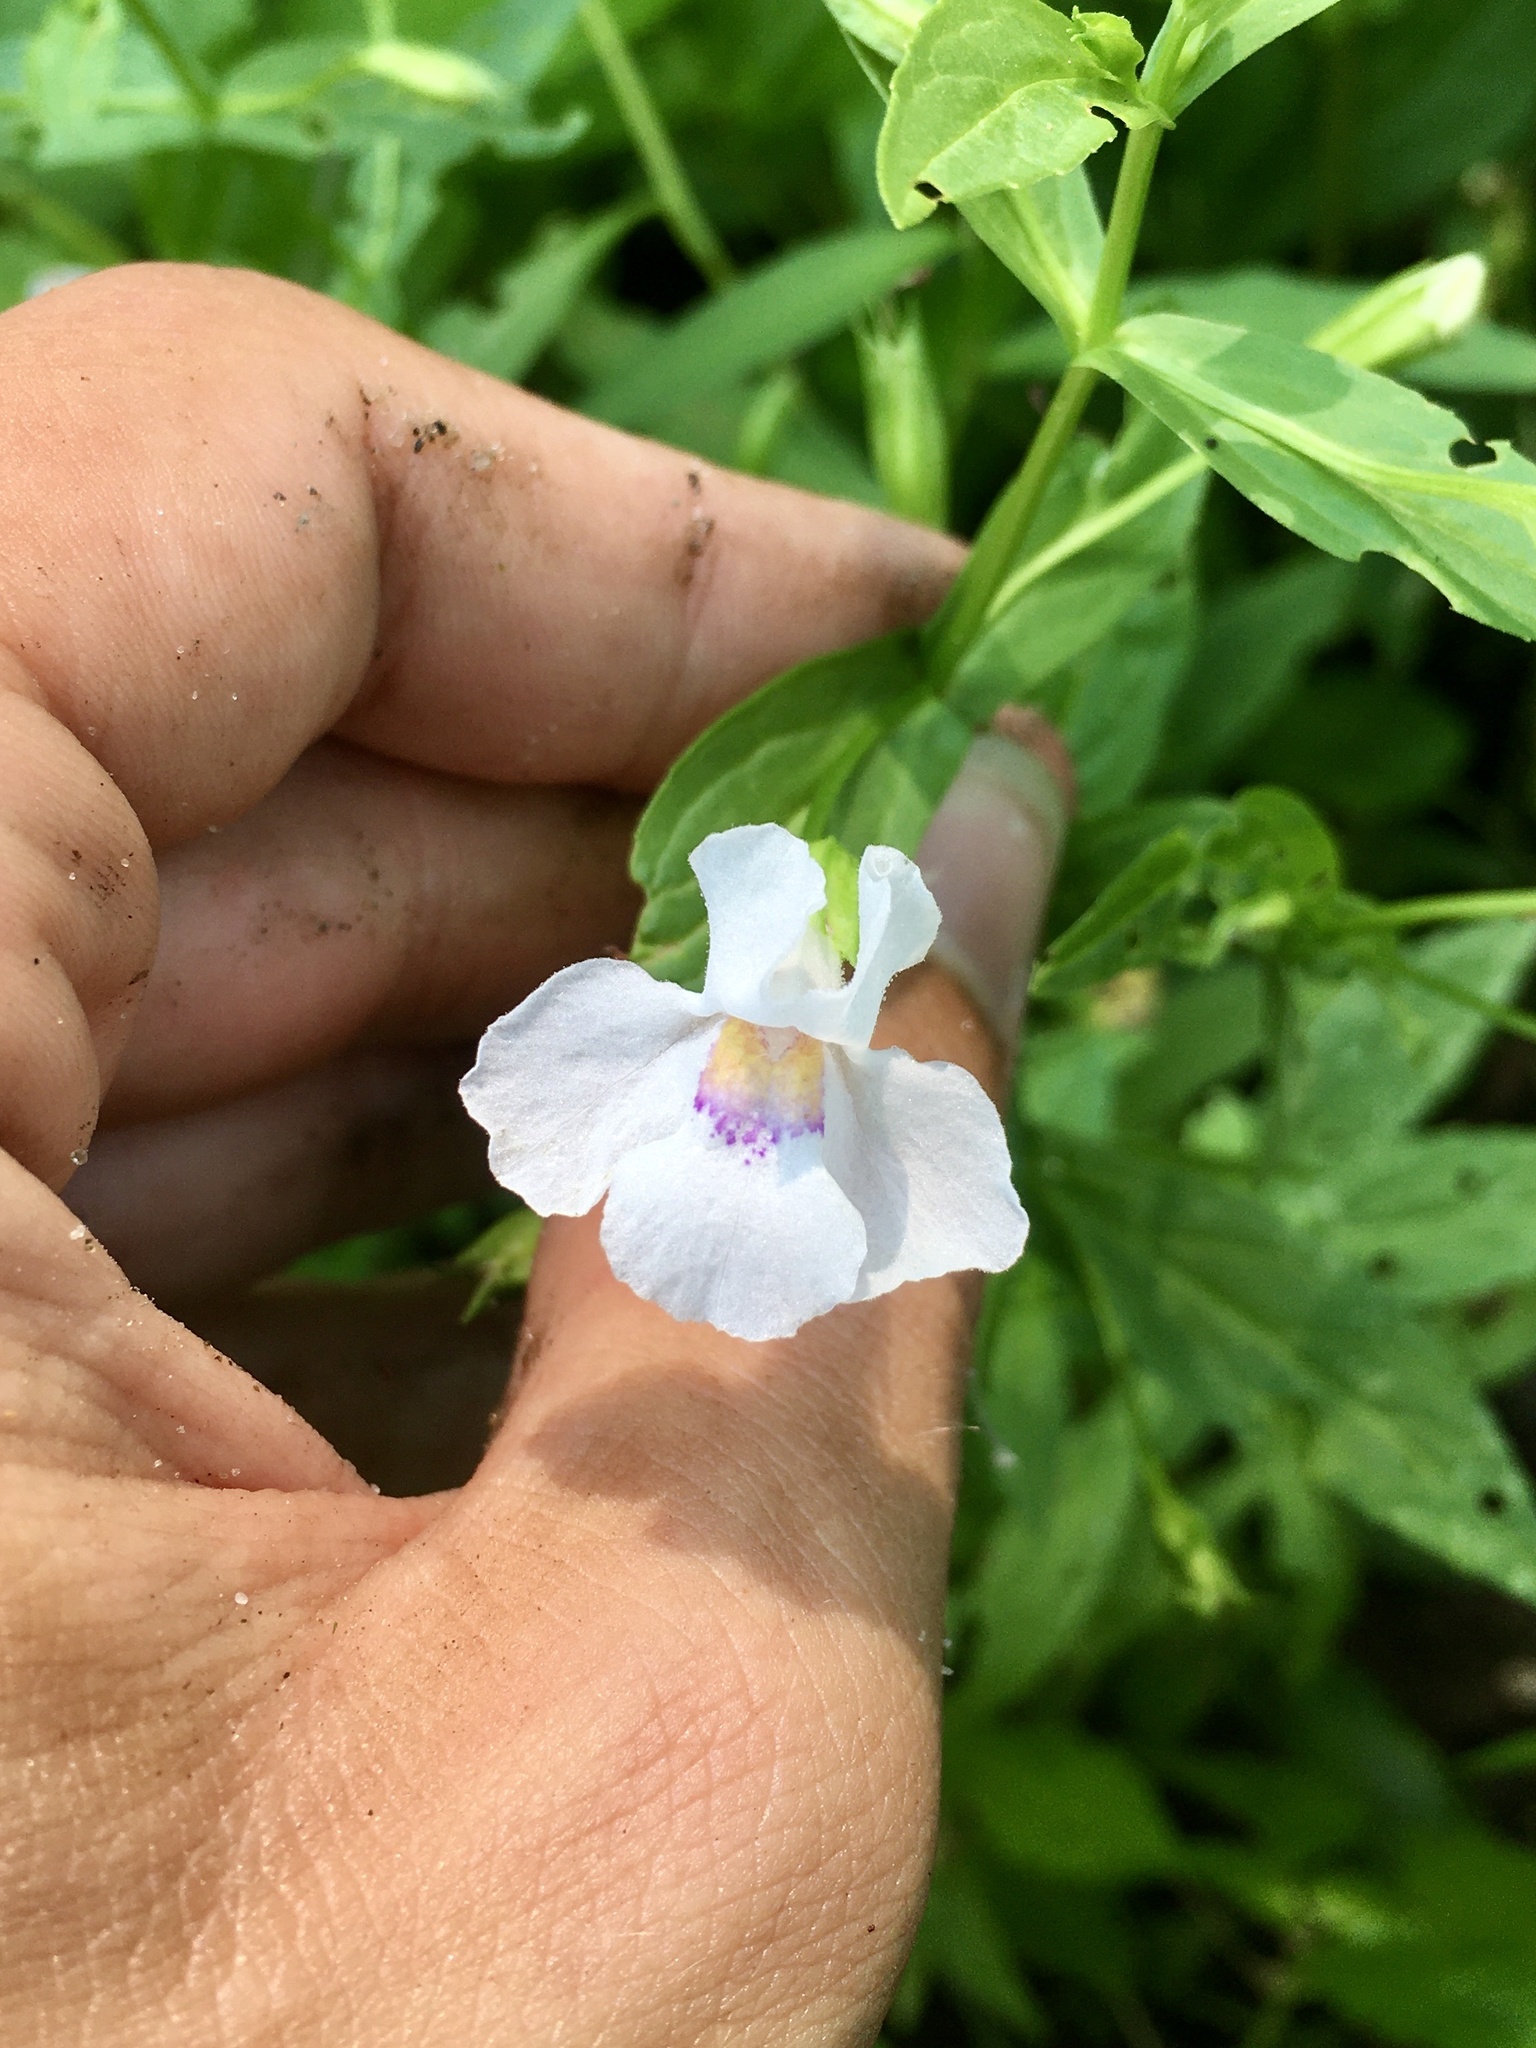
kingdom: Plantae
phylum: Tracheophyta
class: Magnoliopsida
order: Lamiales
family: Phrymaceae
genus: Mimulus
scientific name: Mimulus ringens
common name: Allegheny monkeyflower
